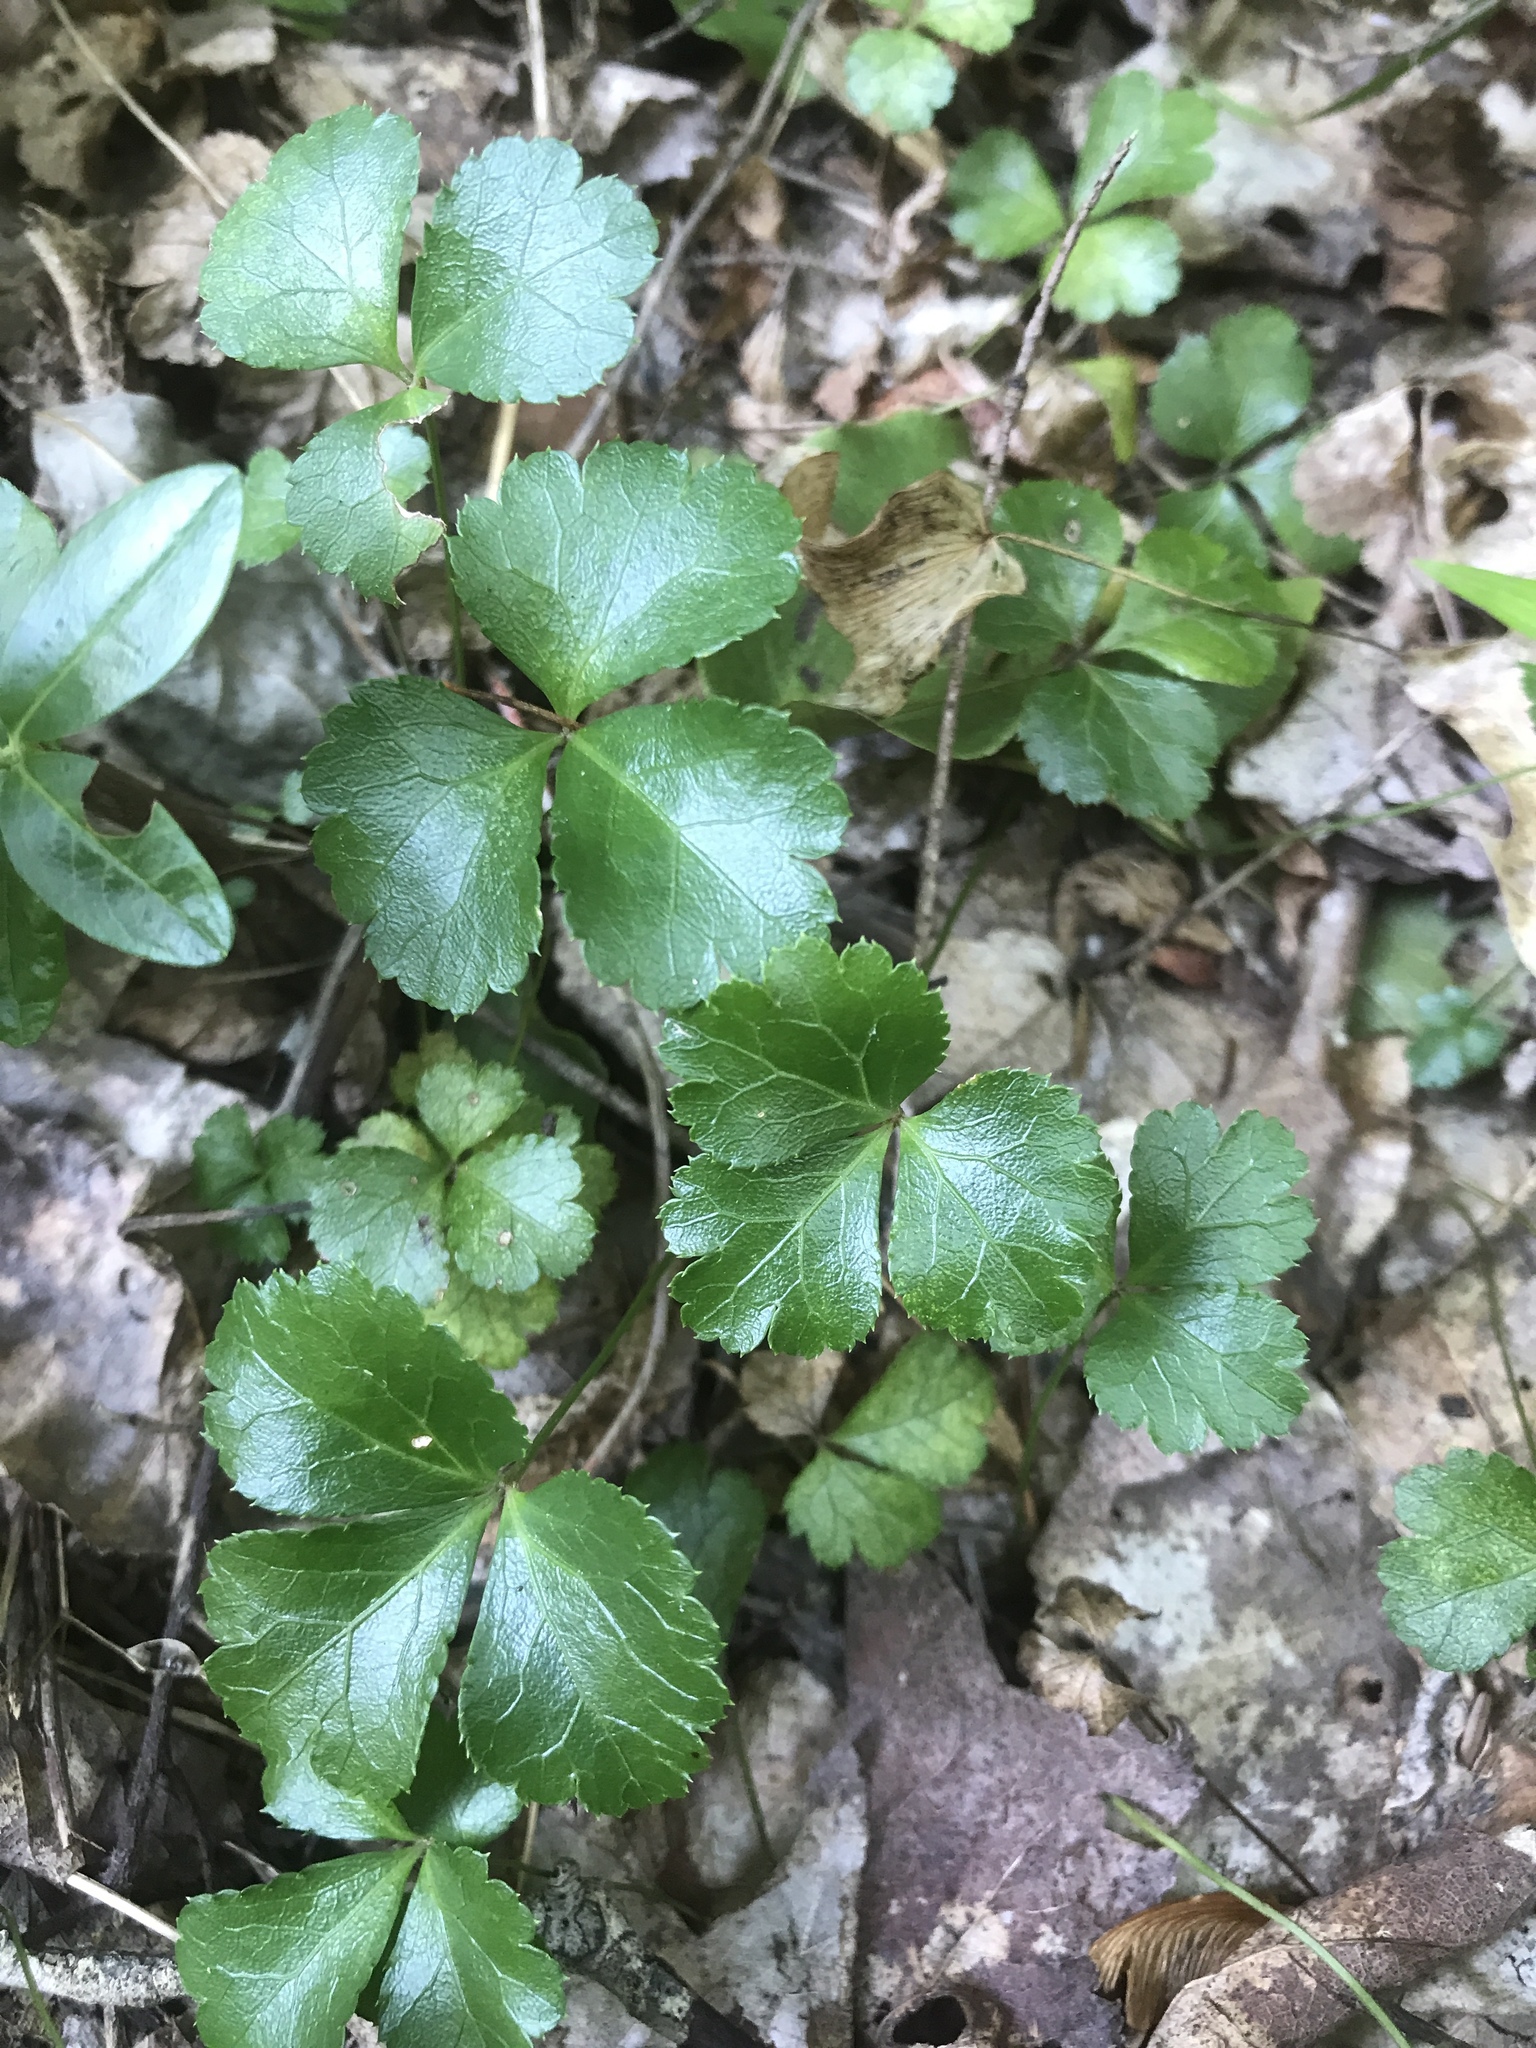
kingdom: Plantae
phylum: Tracheophyta
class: Magnoliopsida
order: Ranunculales
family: Ranunculaceae
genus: Coptis
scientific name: Coptis trifolia
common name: Canker-root
